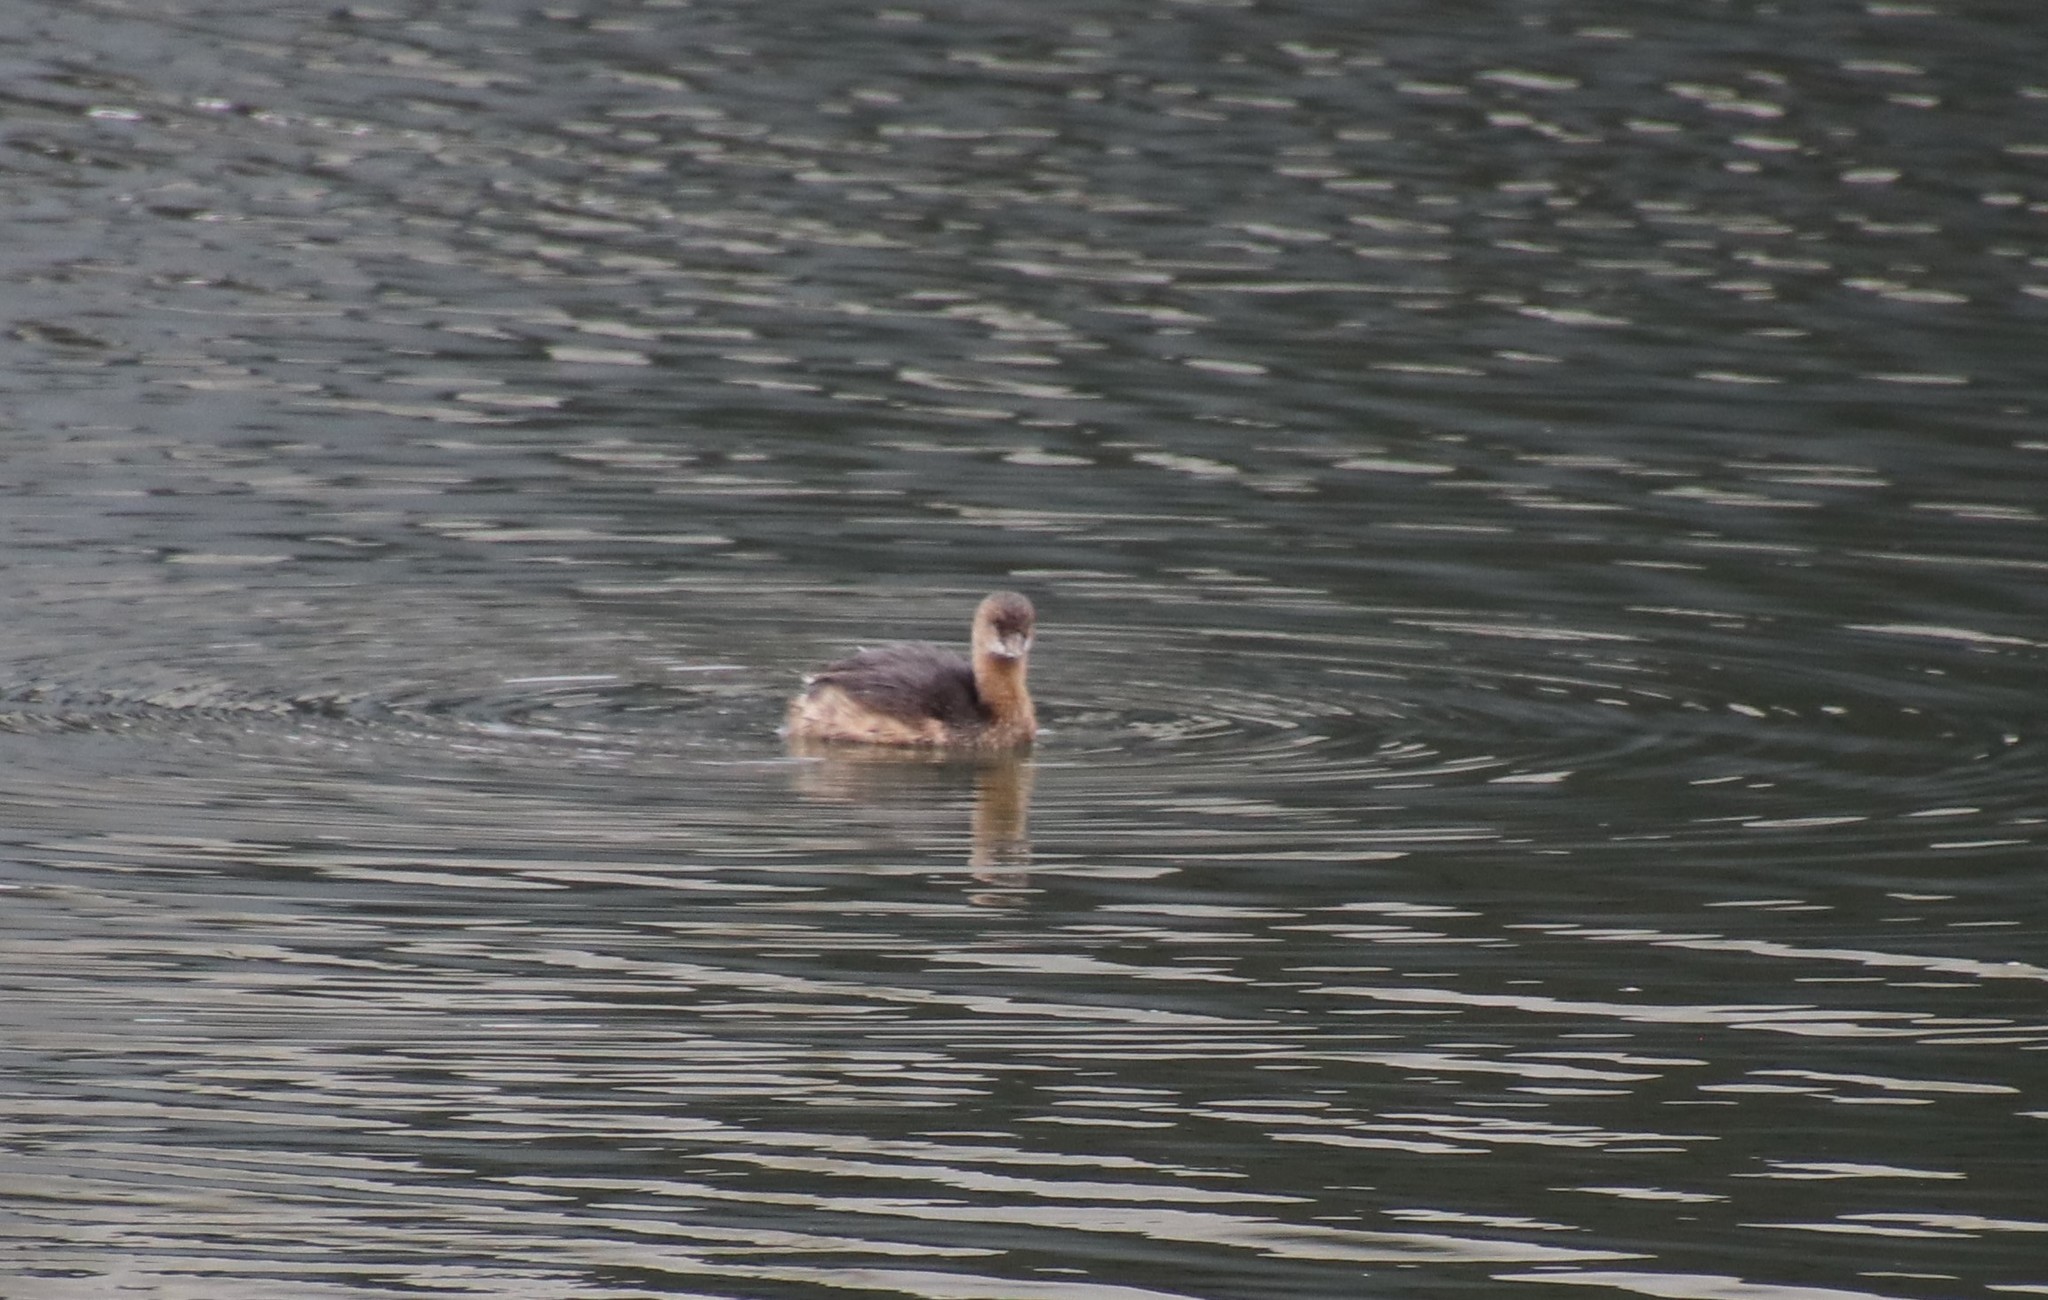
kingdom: Animalia
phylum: Chordata
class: Aves
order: Podicipediformes
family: Podicipedidae
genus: Podilymbus
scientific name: Podilymbus podiceps
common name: Pied-billed grebe
